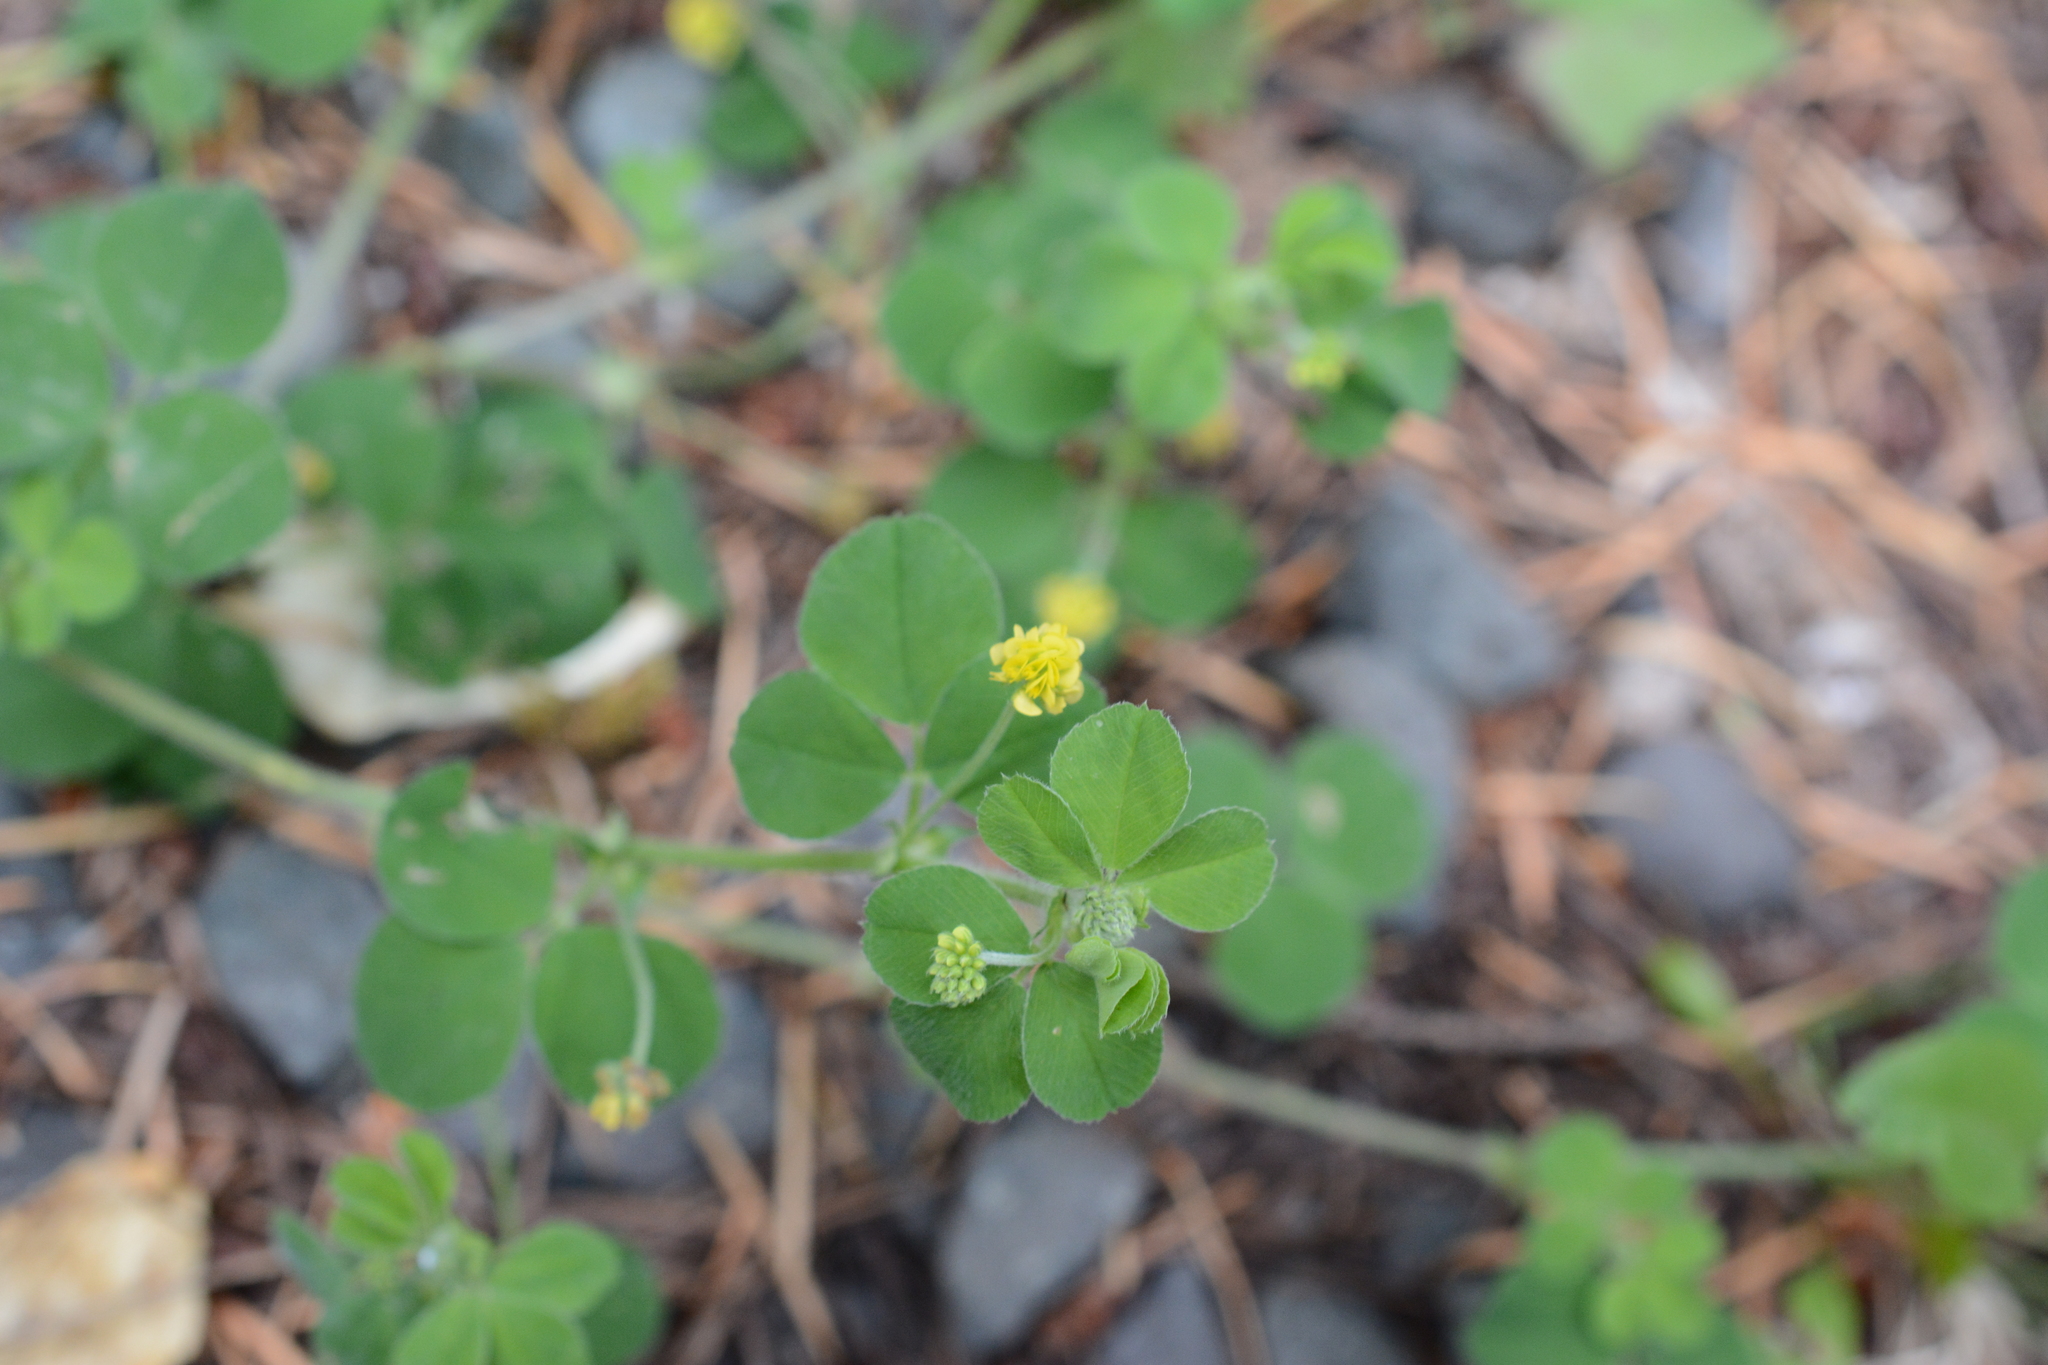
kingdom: Plantae
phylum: Tracheophyta
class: Magnoliopsida
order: Fabales
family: Fabaceae
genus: Medicago
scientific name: Medicago lupulina
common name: Black medick
